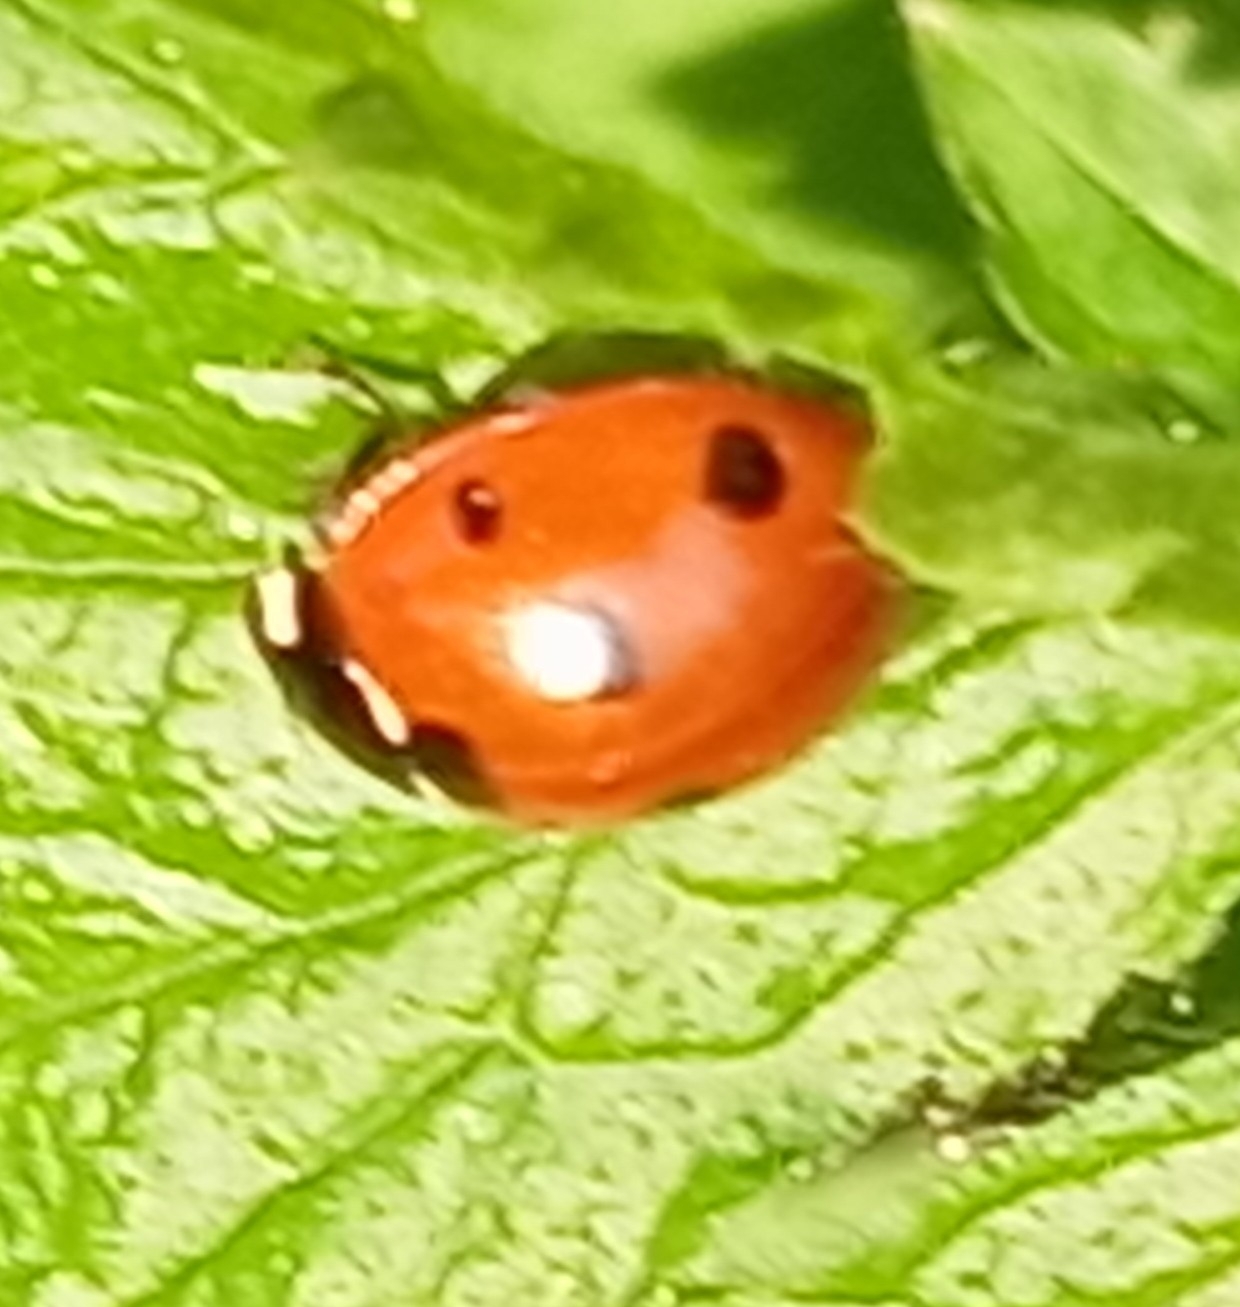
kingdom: Animalia
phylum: Arthropoda
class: Insecta
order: Coleoptera
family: Coccinellidae
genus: Coccinella
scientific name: Coccinella septempunctata
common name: Sevenspotted lady beetle
